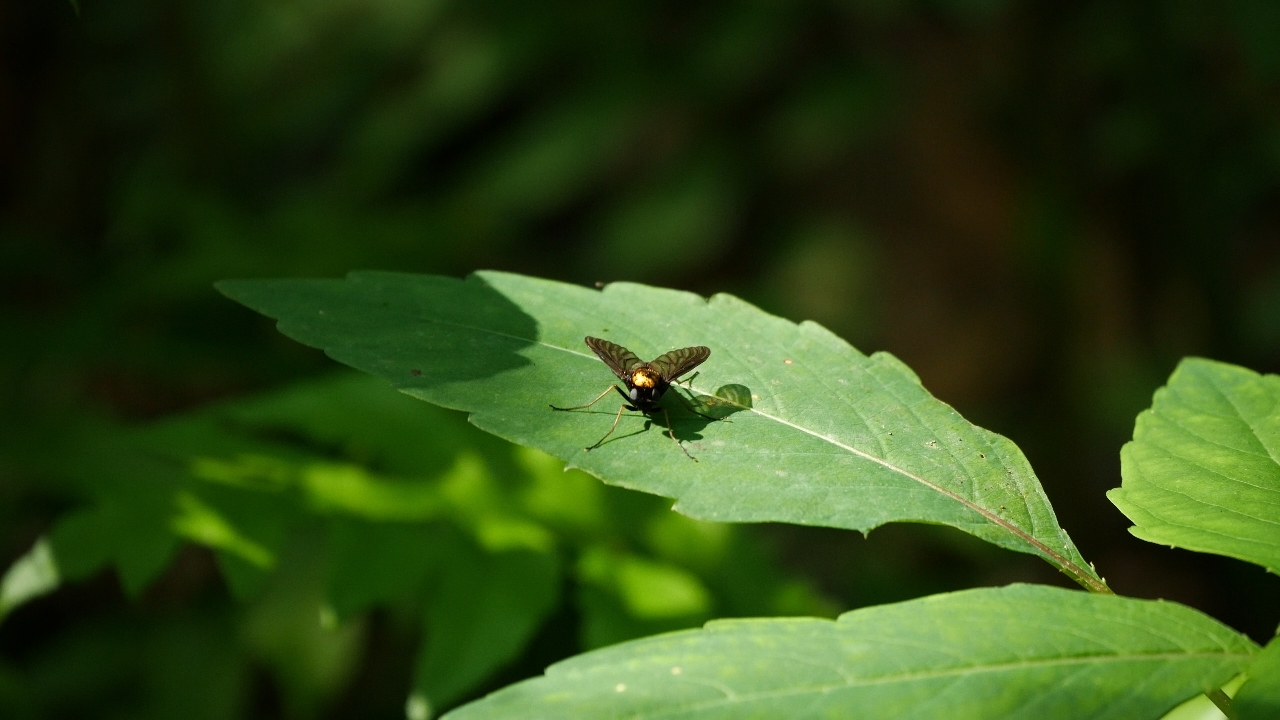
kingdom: Animalia
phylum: Arthropoda
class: Insecta
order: Diptera
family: Rhagionidae
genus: Chrysopilus
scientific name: Chrysopilus thoracicus
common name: Golden-backed snipe fly
